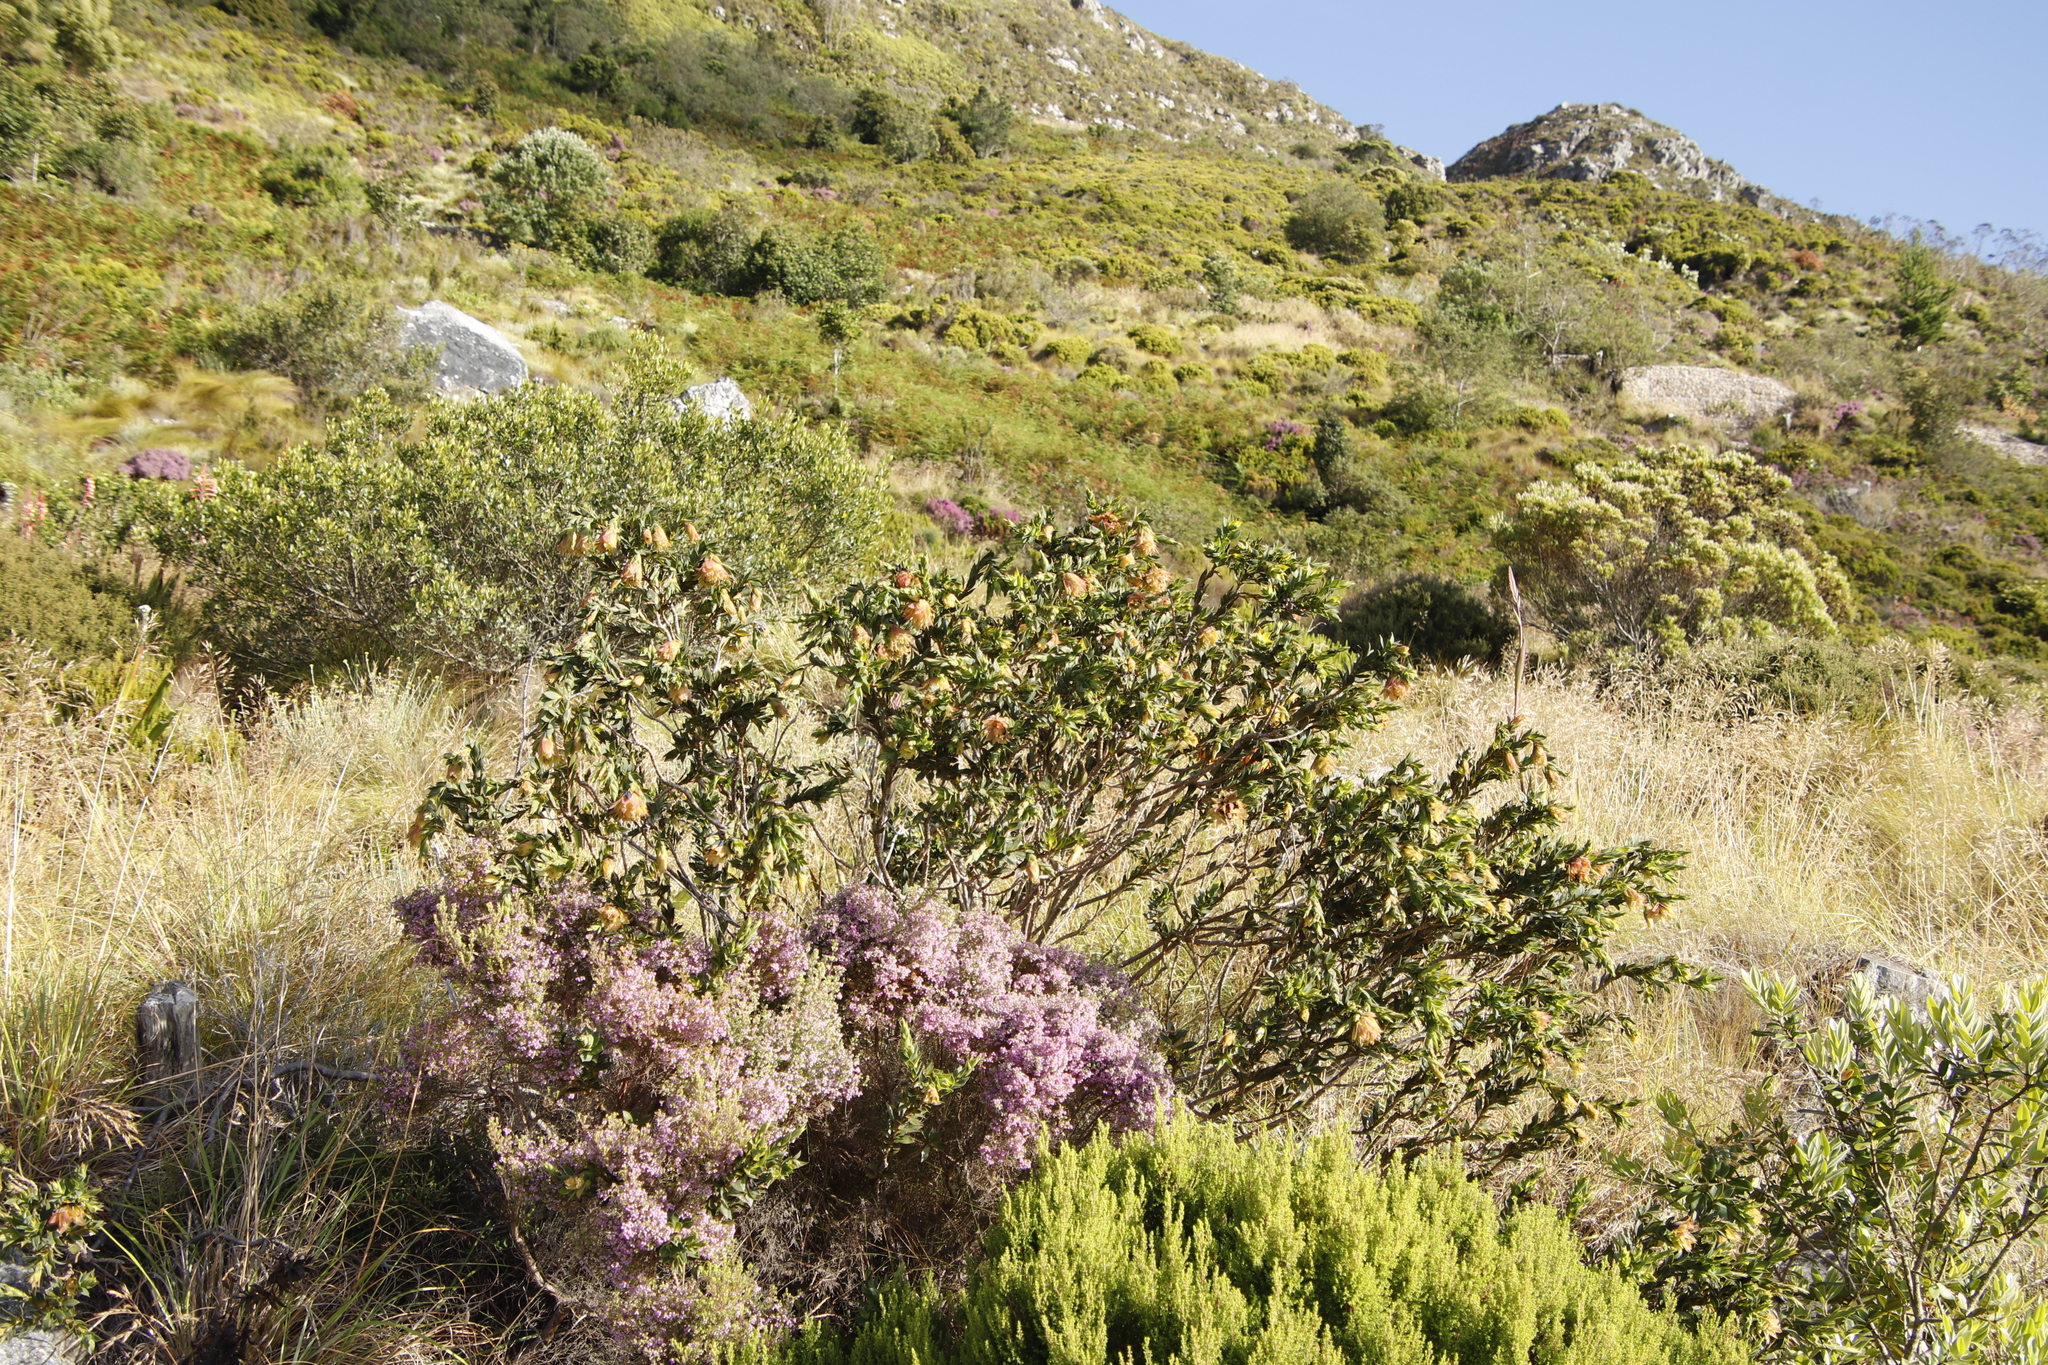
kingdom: Plantae
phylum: Tracheophyta
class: Magnoliopsida
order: Fabales
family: Fabaceae
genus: Liparia
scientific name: Liparia splendens
